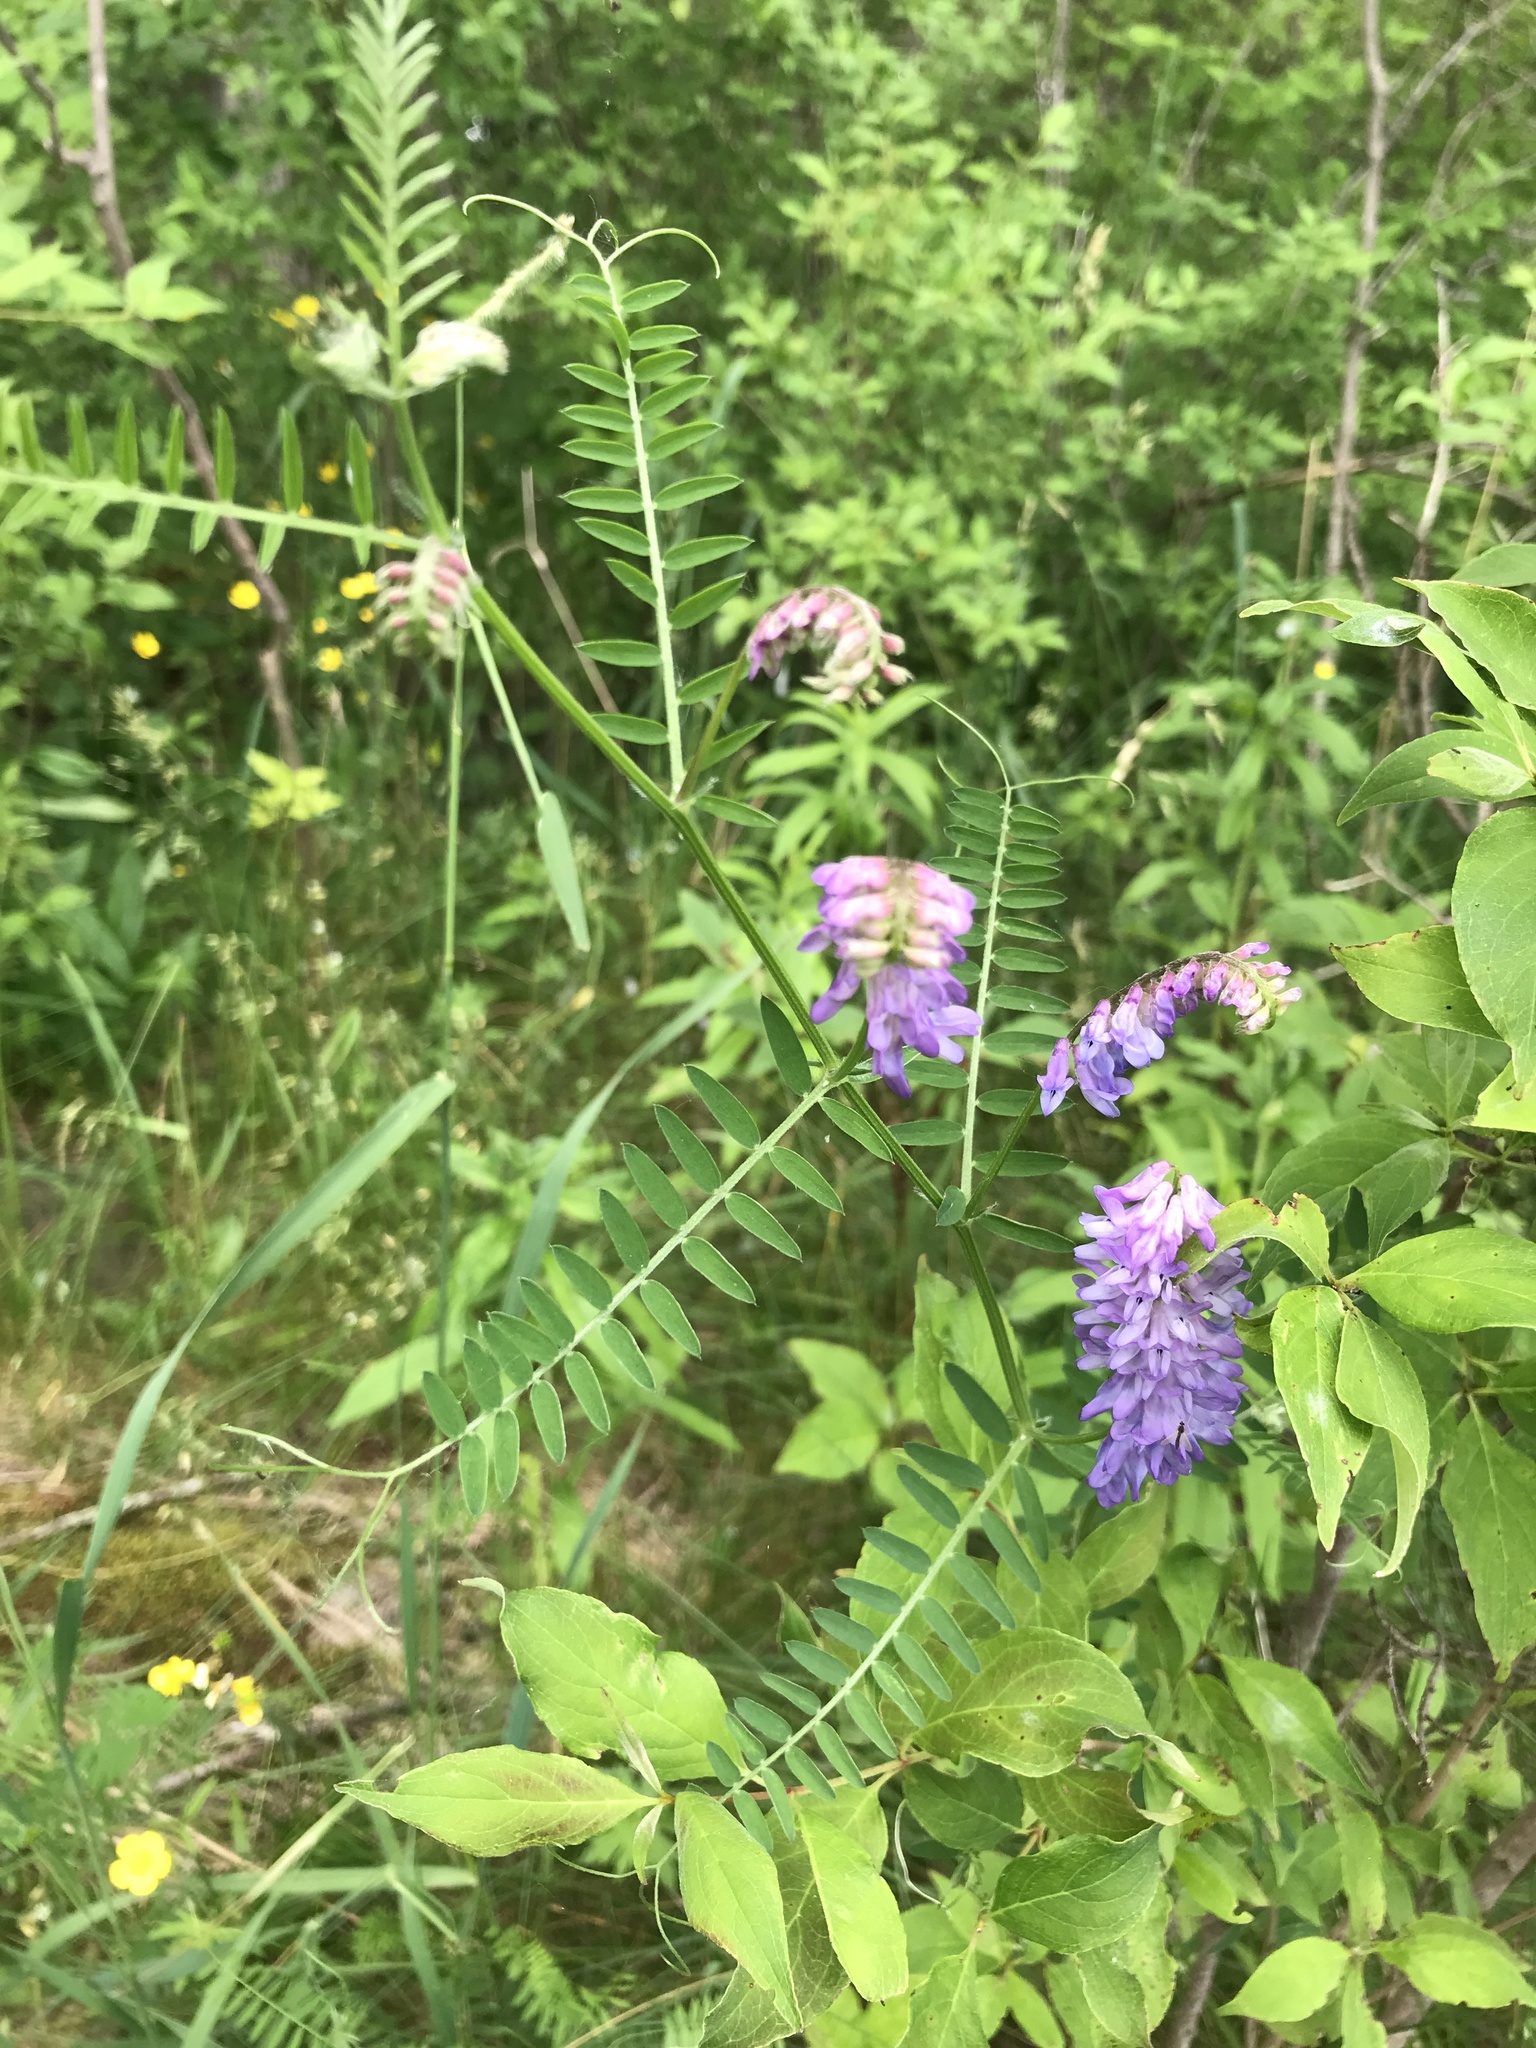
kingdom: Plantae
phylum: Tracheophyta
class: Magnoliopsida
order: Fabales
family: Fabaceae
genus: Vicia
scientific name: Vicia cracca
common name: Bird vetch
